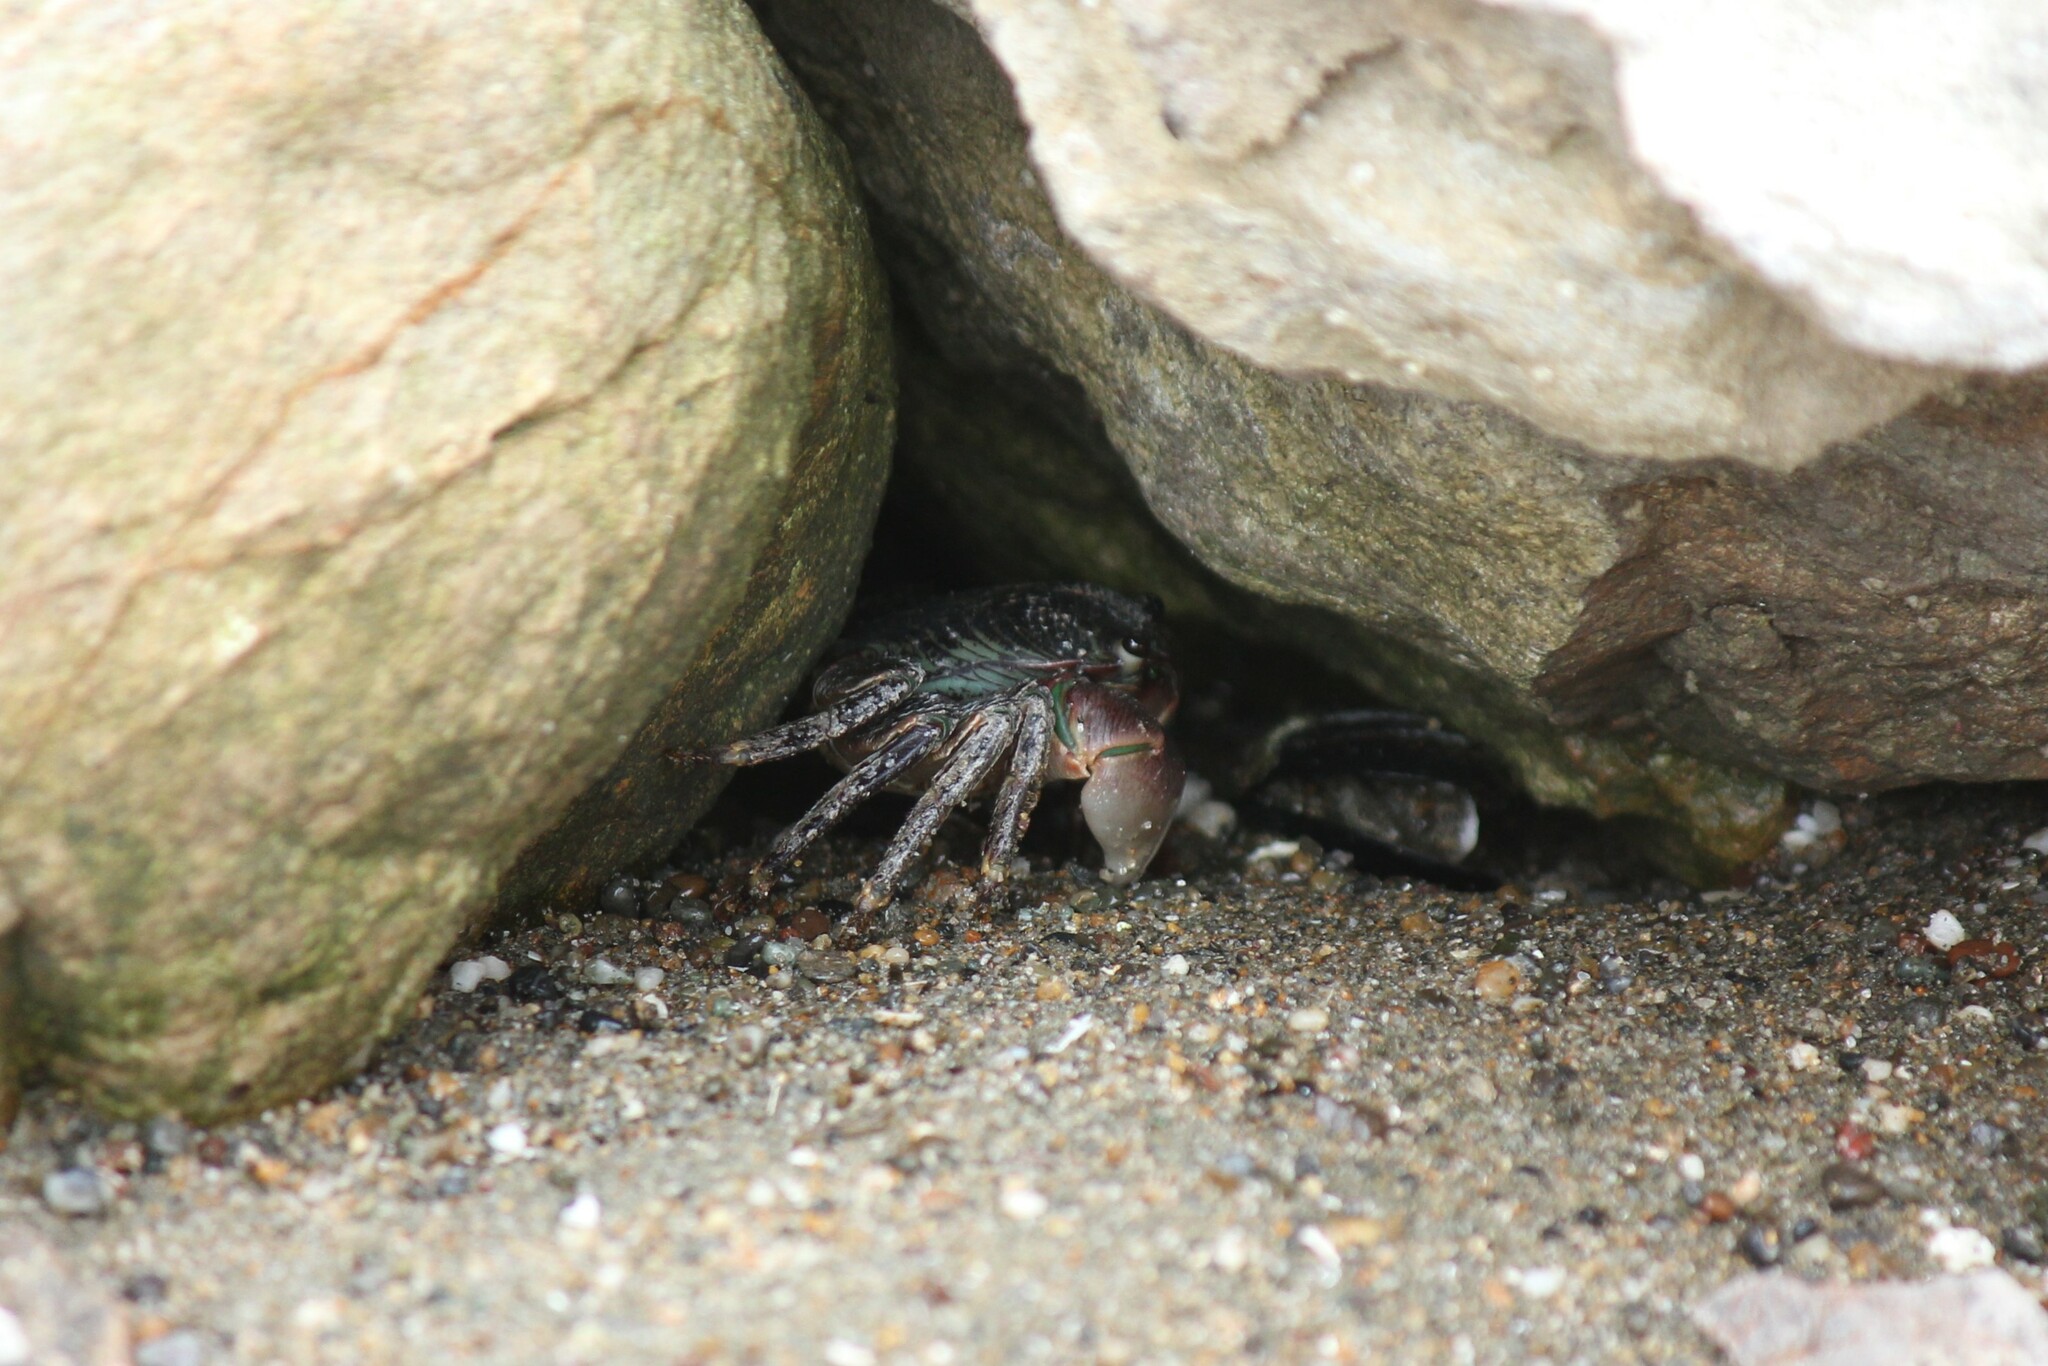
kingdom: Animalia
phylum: Arthropoda
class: Malacostraca
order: Decapoda
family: Grapsidae
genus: Pachygrapsus
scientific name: Pachygrapsus crassipes
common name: Striped shore crab
